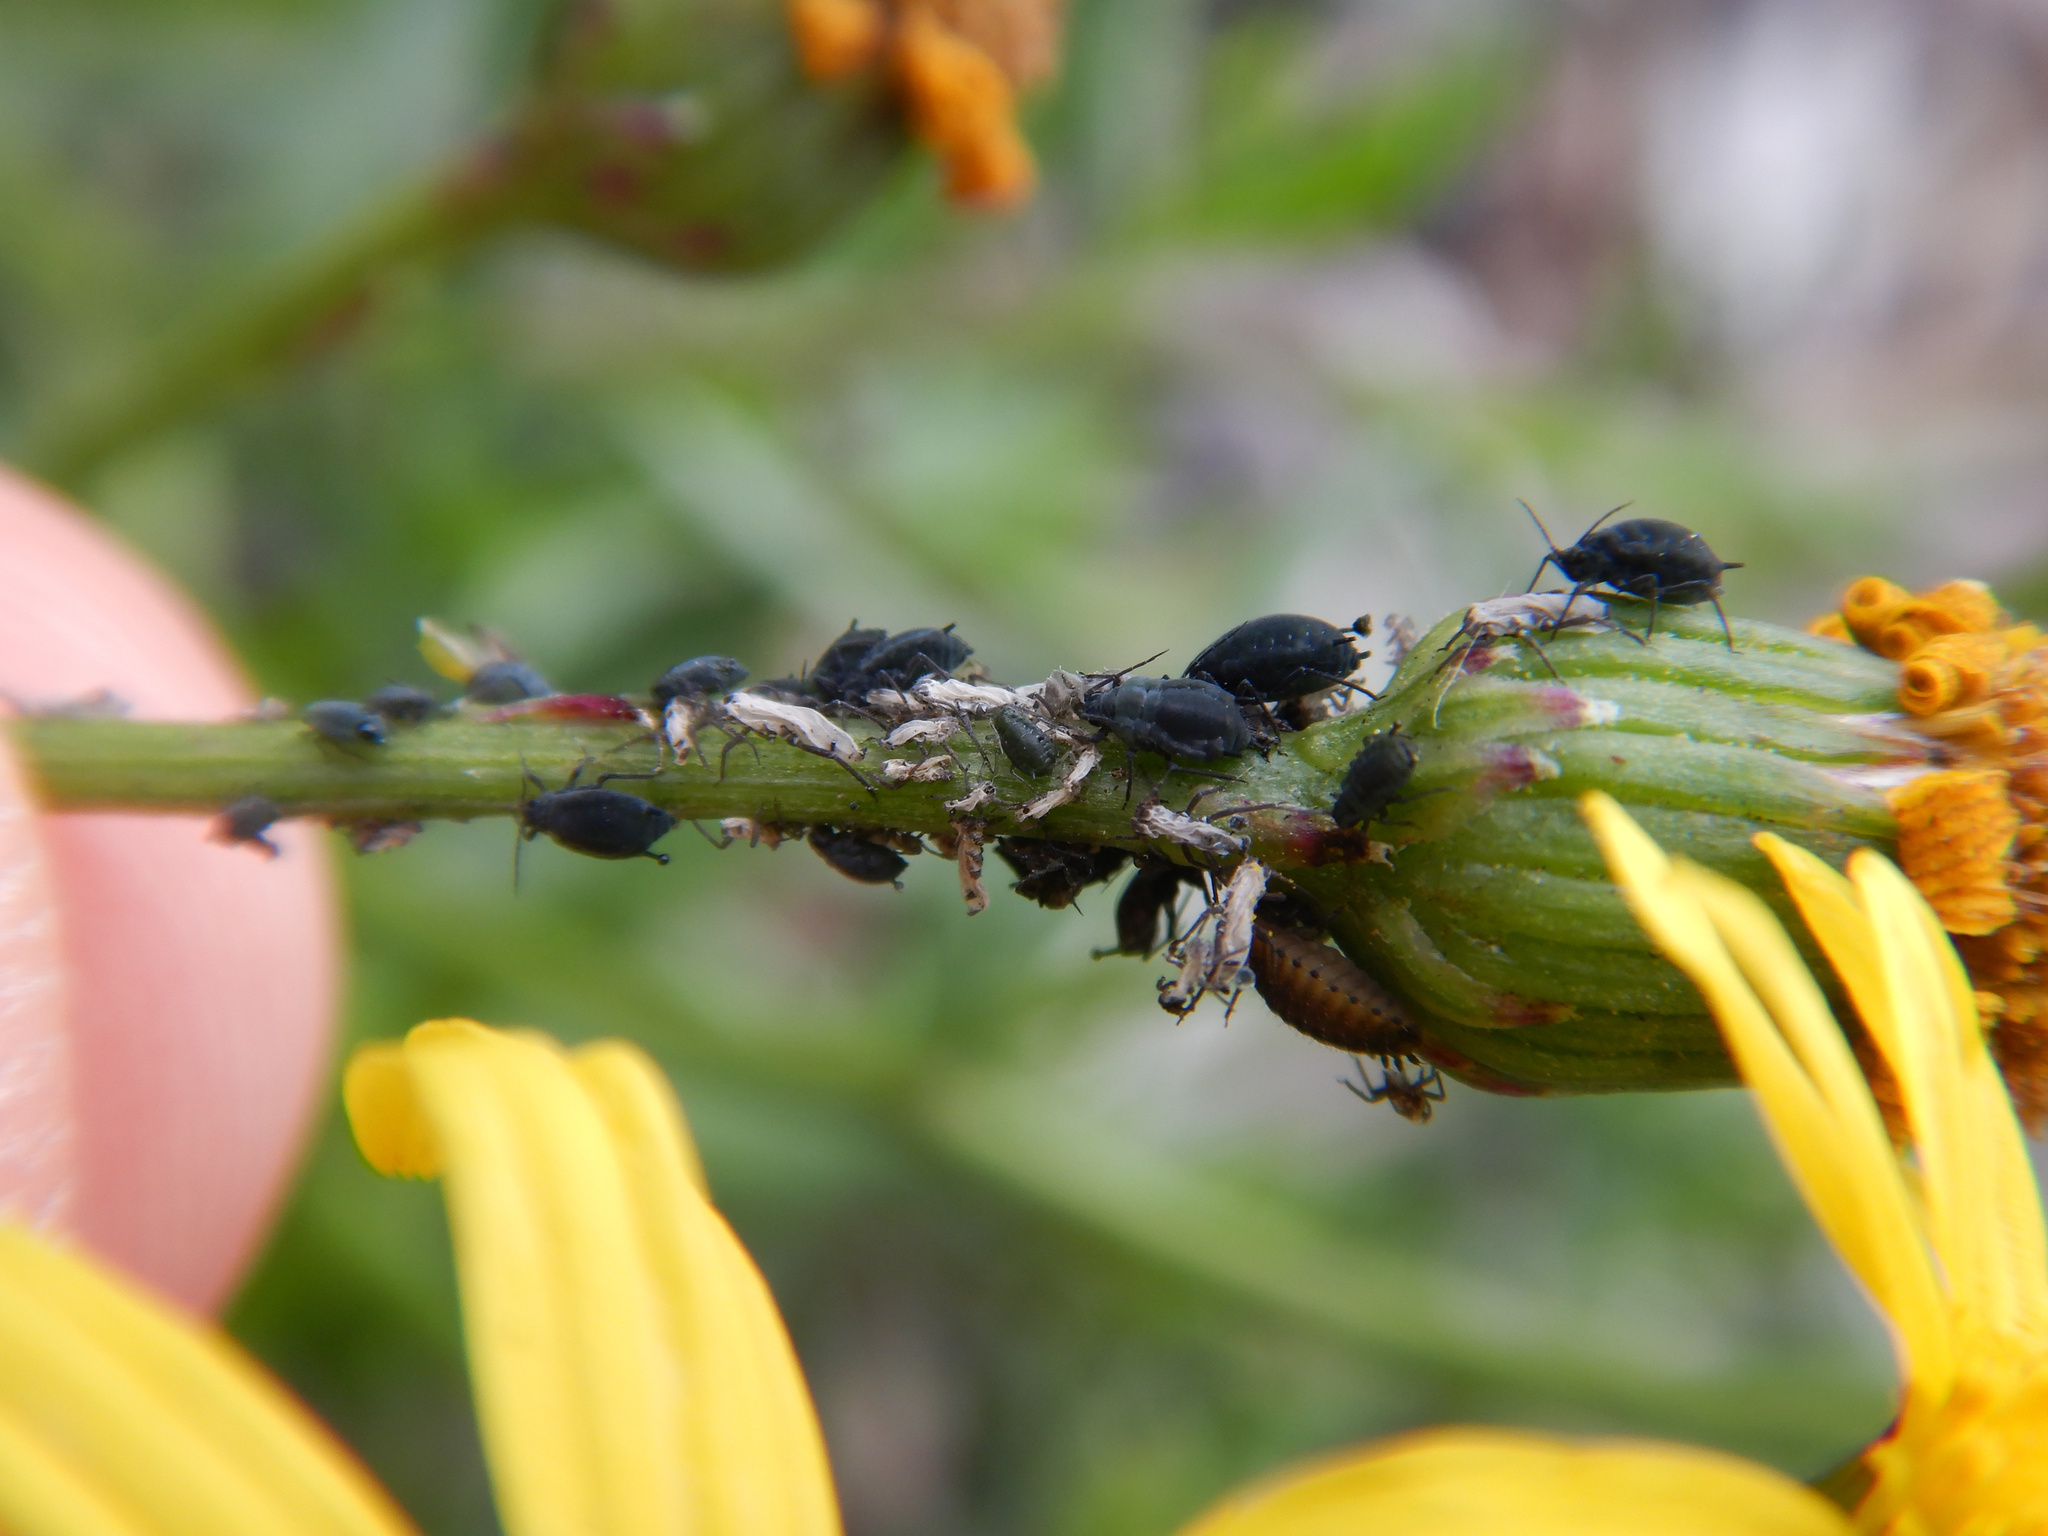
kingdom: Animalia
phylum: Arthropoda
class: Insecta
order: Hemiptera
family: Aphididae
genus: Aphis
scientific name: Aphis lugentis
